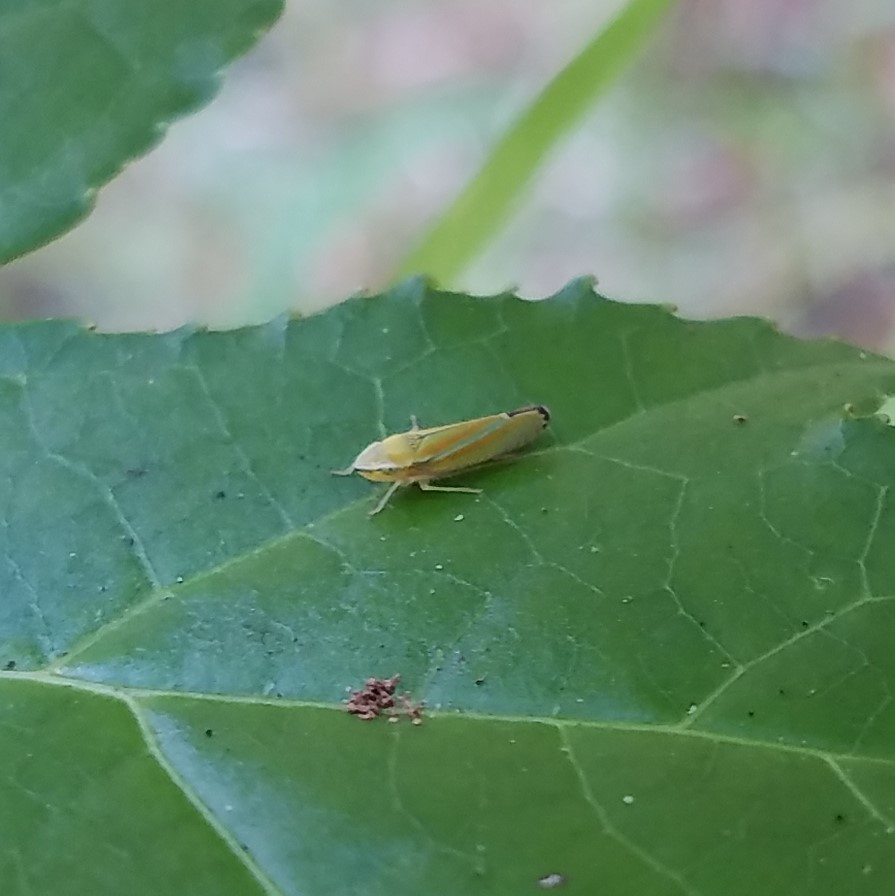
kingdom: Animalia
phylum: Arthropoda
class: Insecta
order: Hemiptera
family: Cicadellidae
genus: Graphocephala
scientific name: Graphocephala versuta
